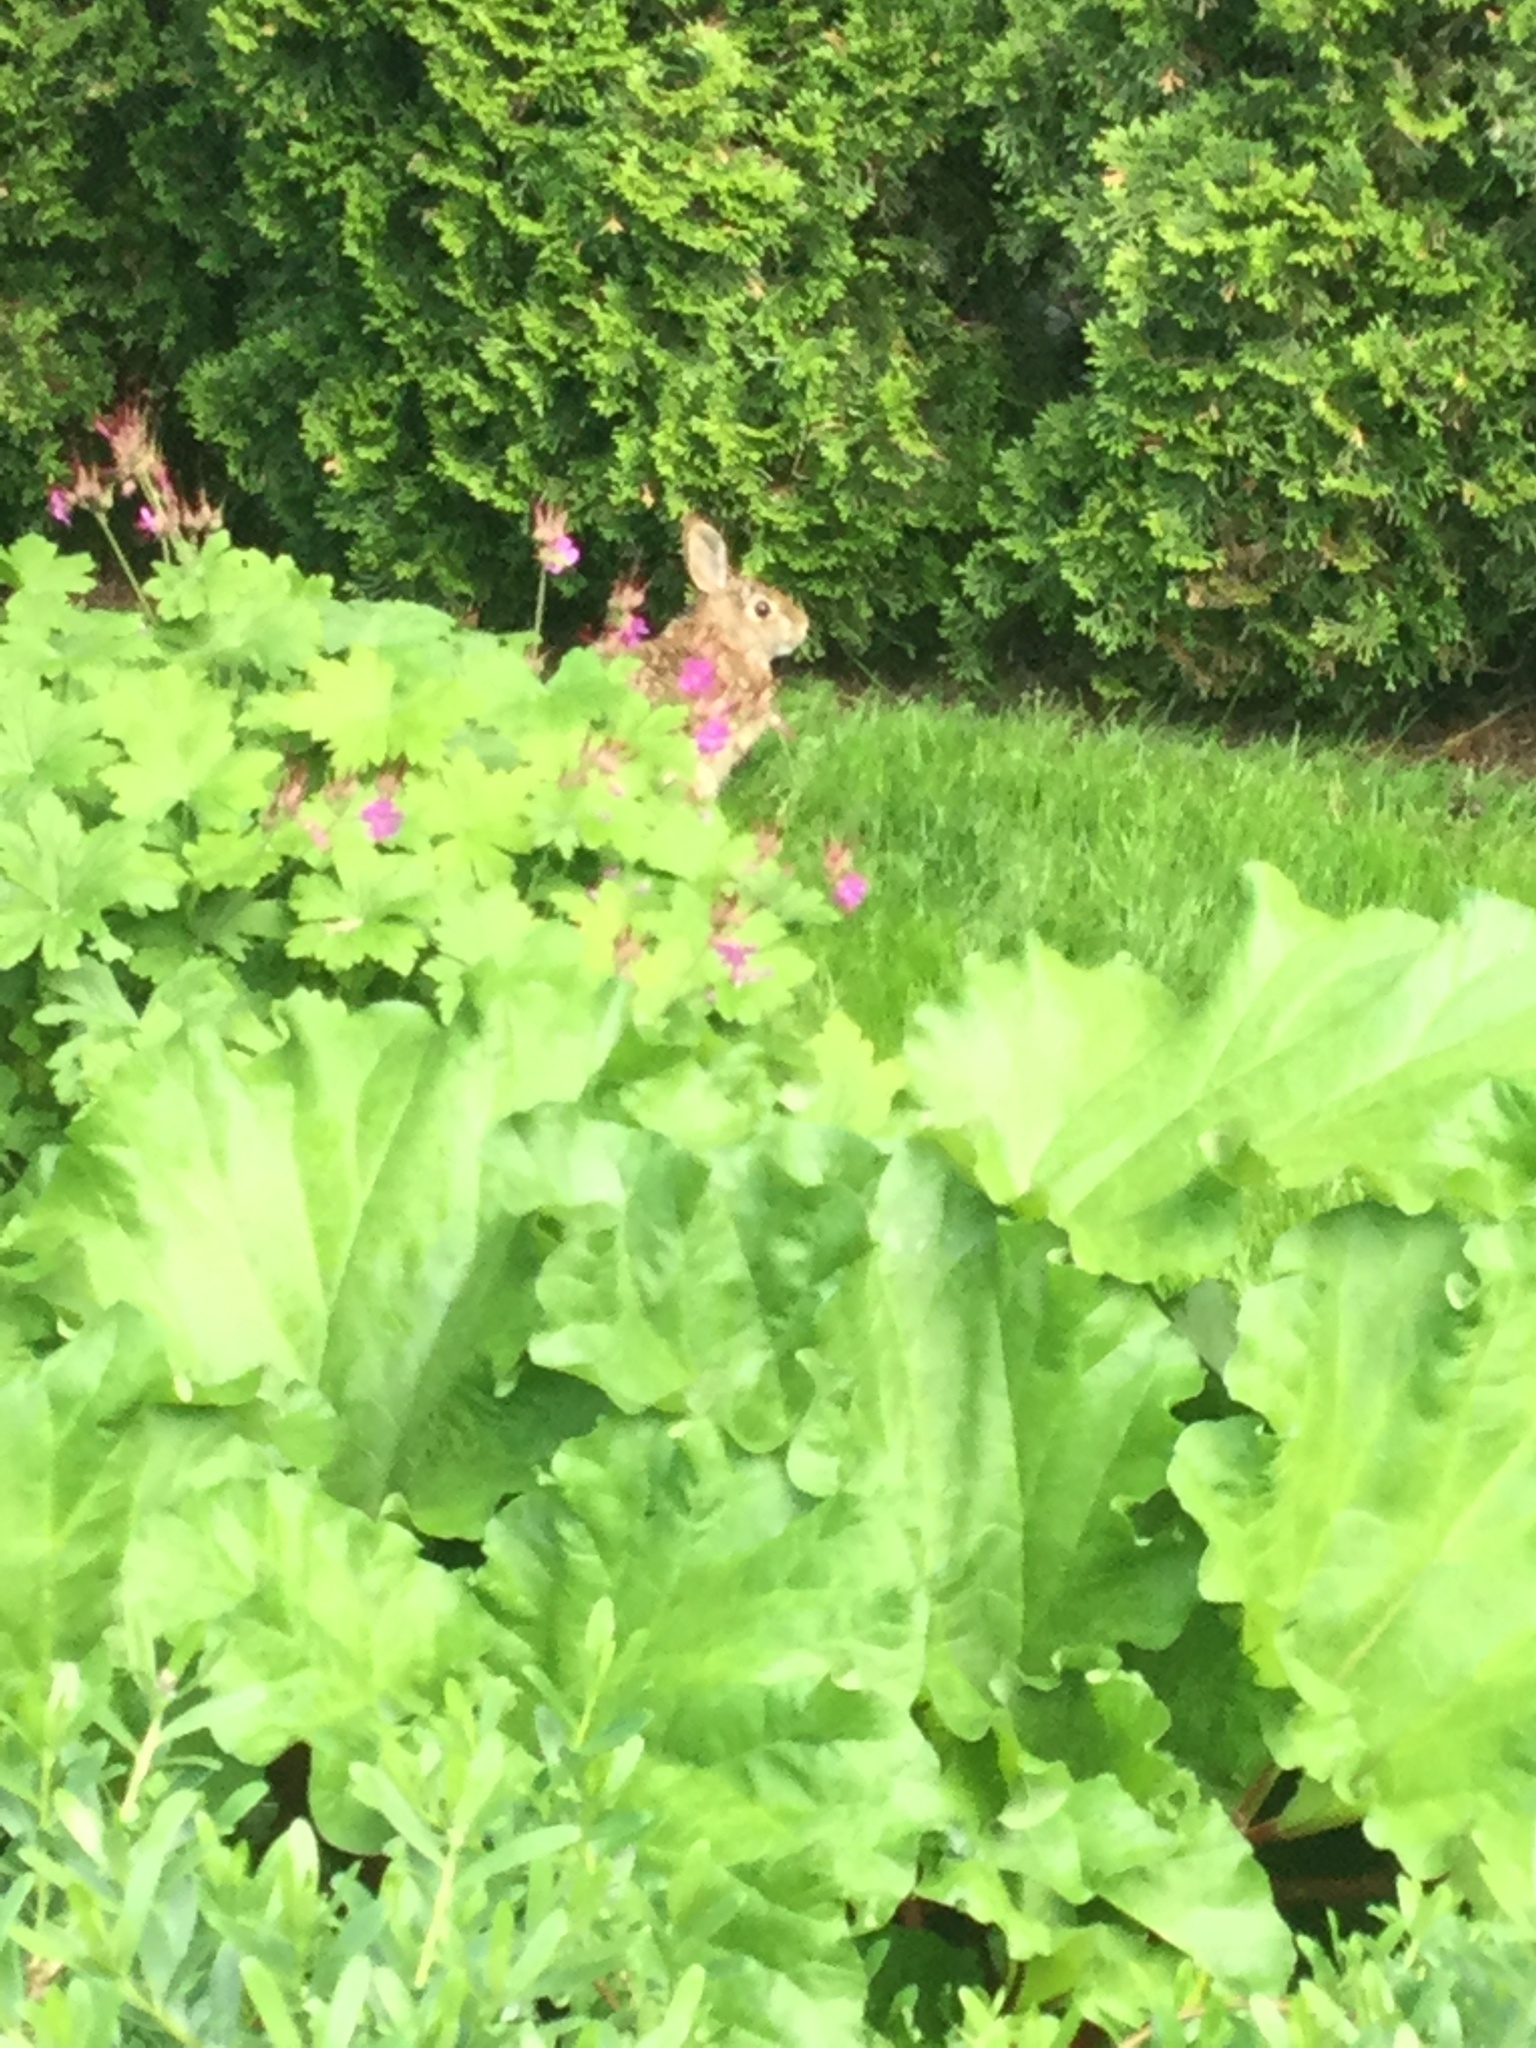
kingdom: Animalia
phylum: Chordata
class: Mammalia
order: Lagomorpha
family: Leporidae
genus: Sylvilagus
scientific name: Sylvilagus floridanus
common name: Eastern cottontail
